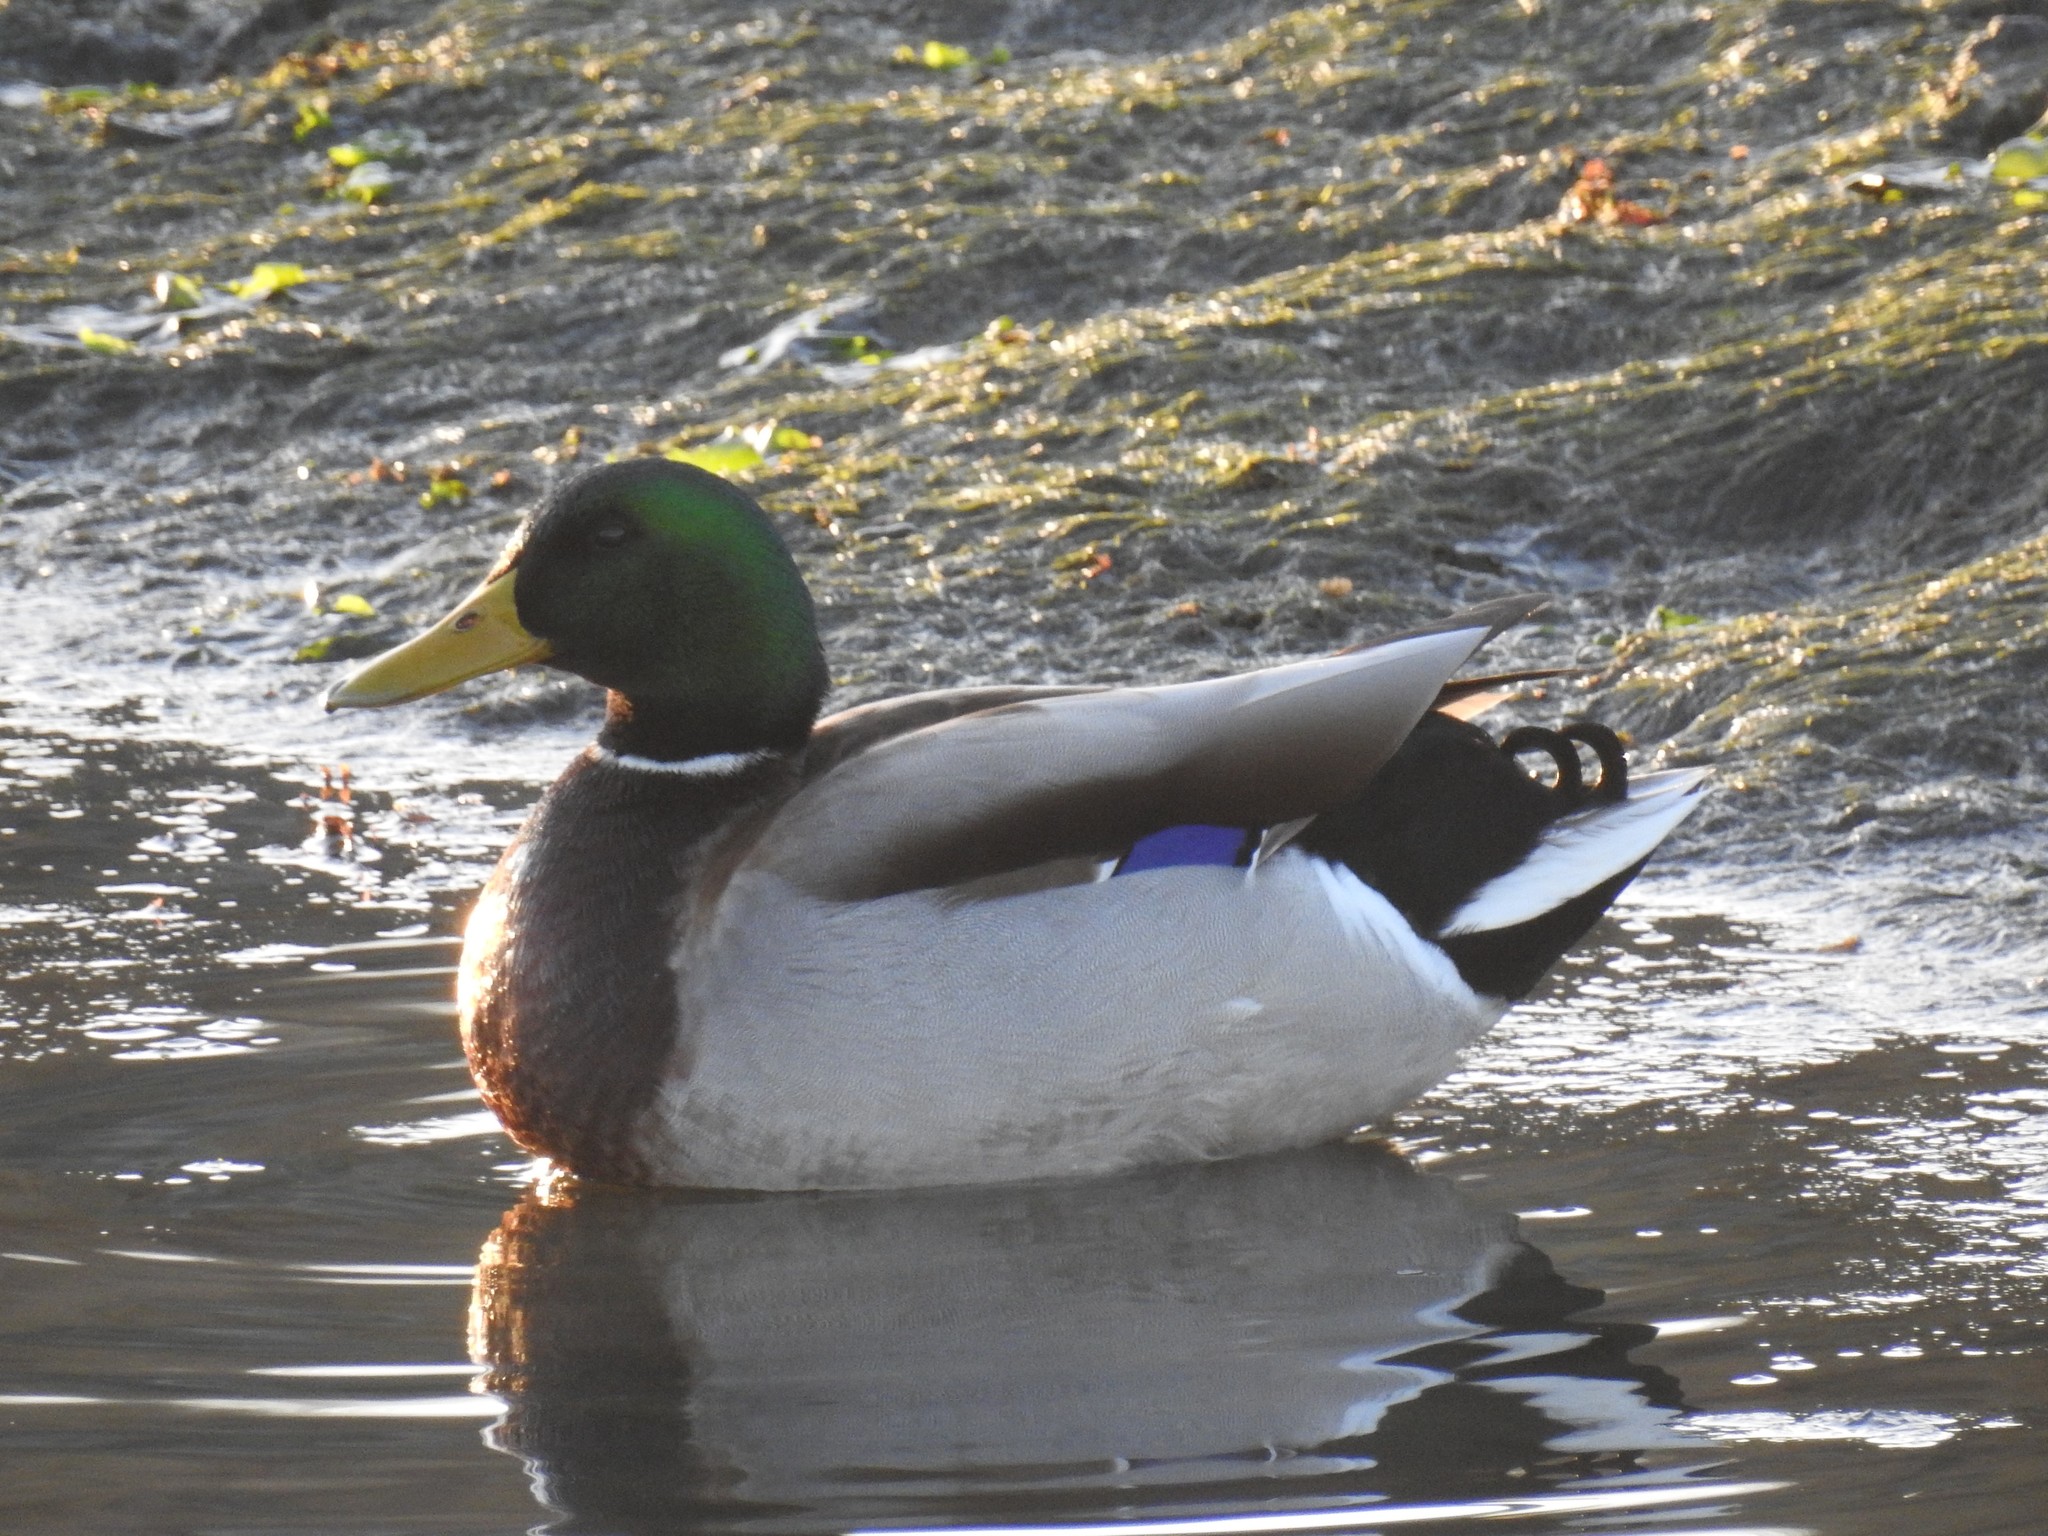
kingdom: Animalia
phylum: Chordata
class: Aves
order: Anseriformes
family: Anatidae
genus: Anas
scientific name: Anas platyrhynchos
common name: Mallard
